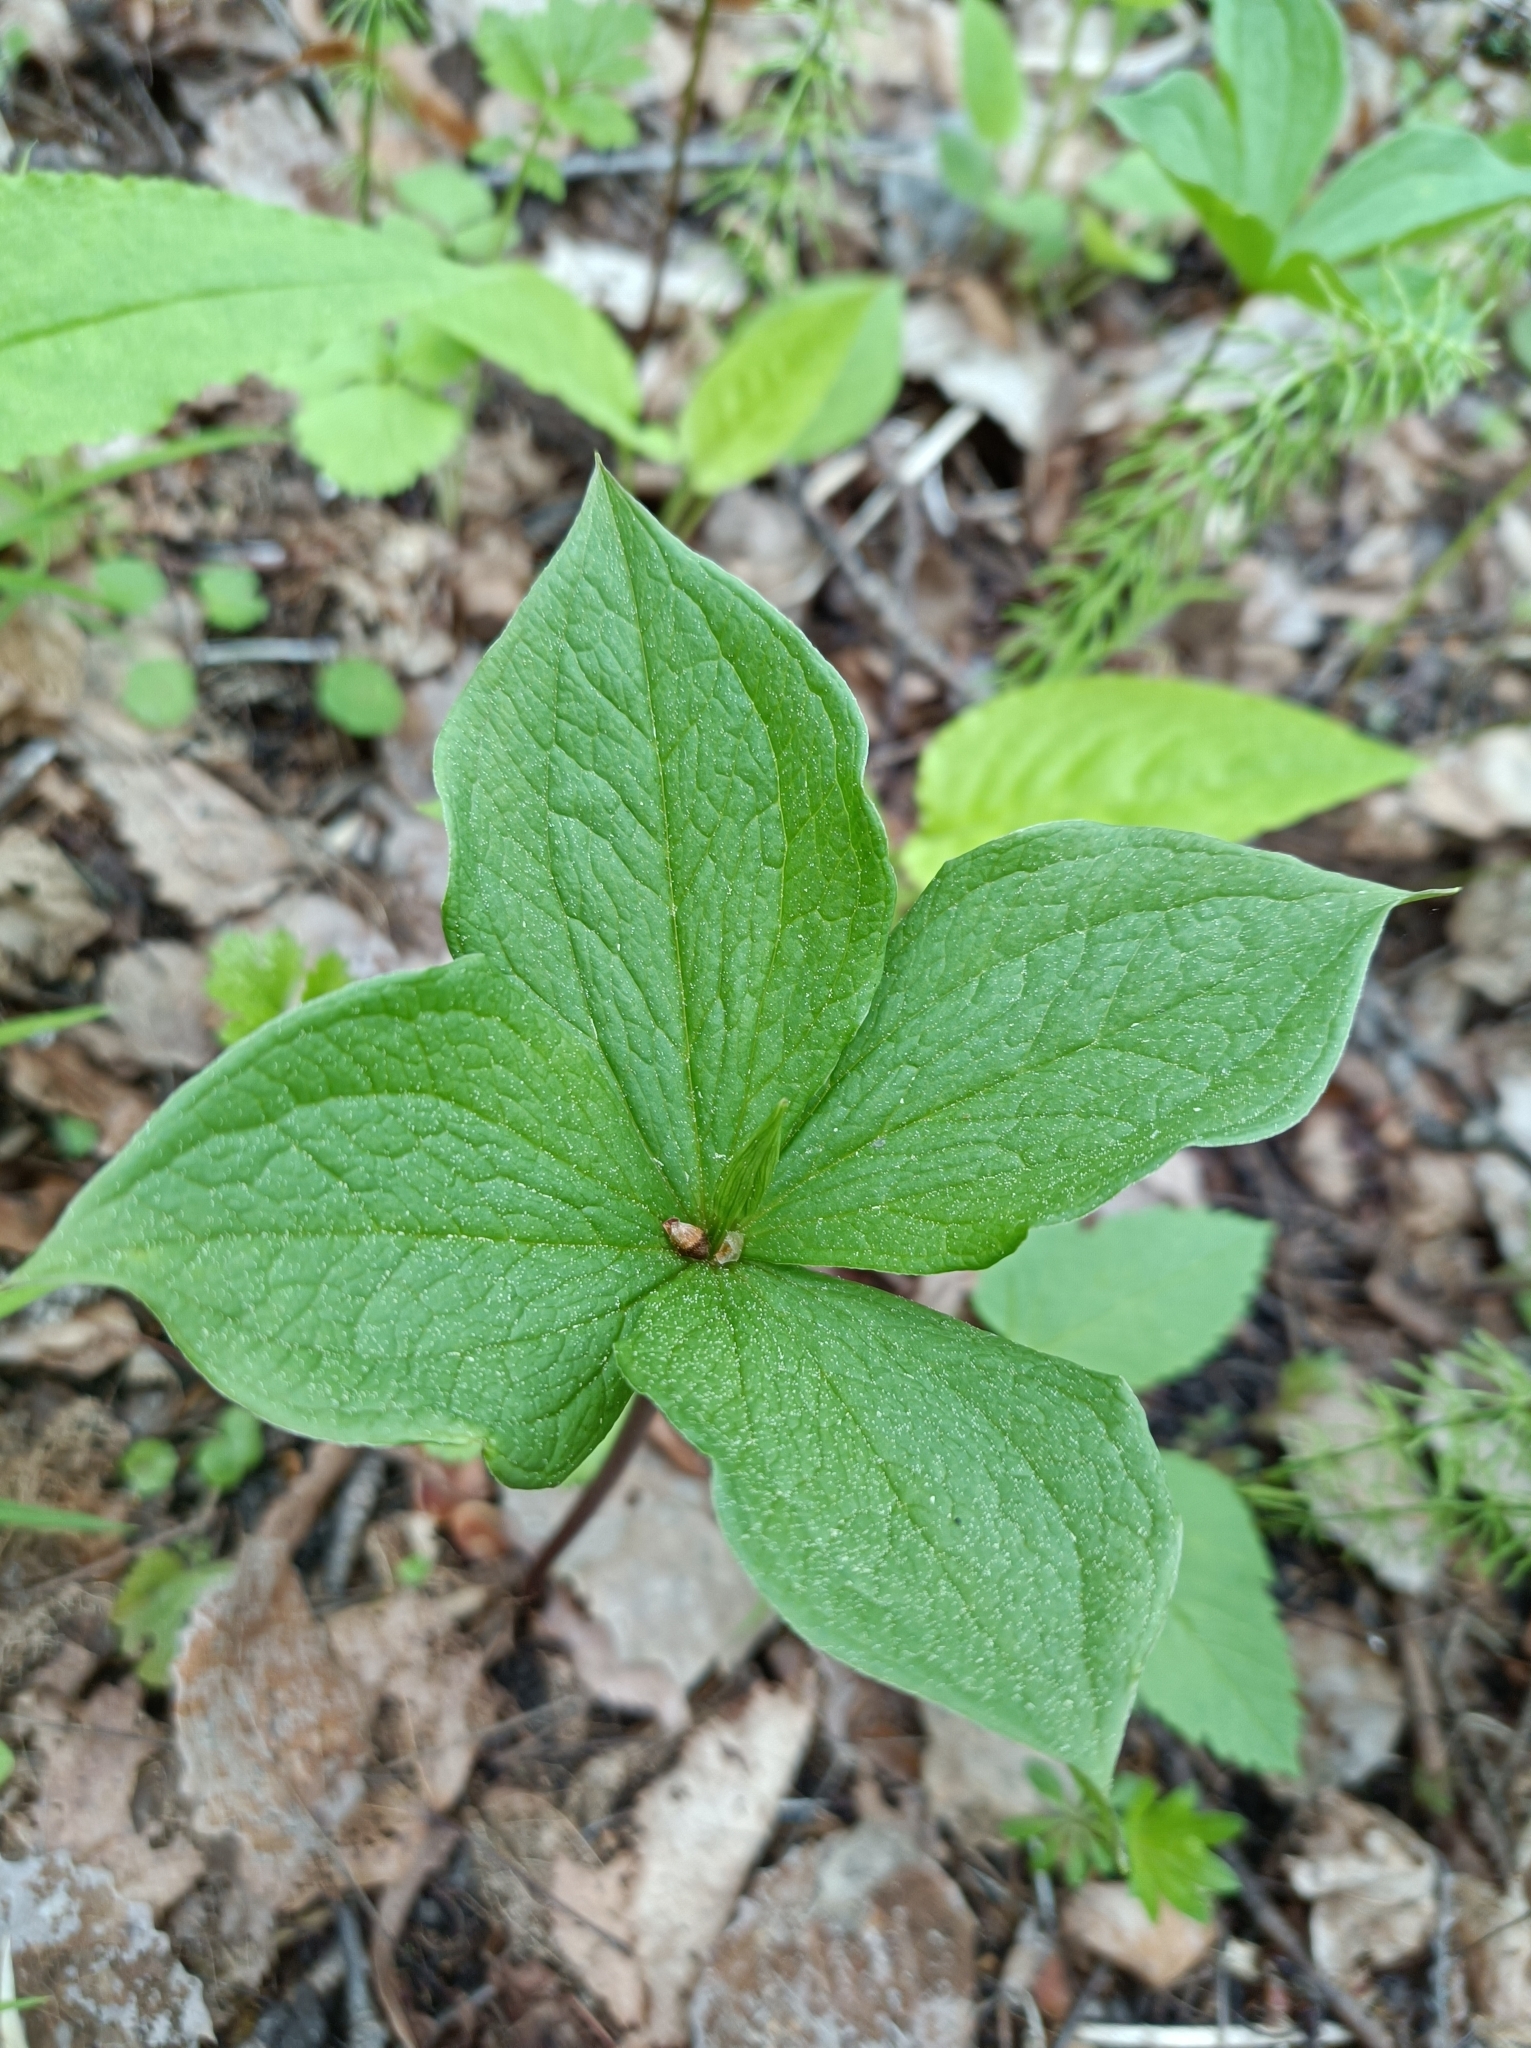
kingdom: Plantae
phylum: Tracheophyta
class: Liliopsida
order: Liliales
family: Melanthiaceae
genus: Paris
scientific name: Paris quadrifolia
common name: Herb-paris
